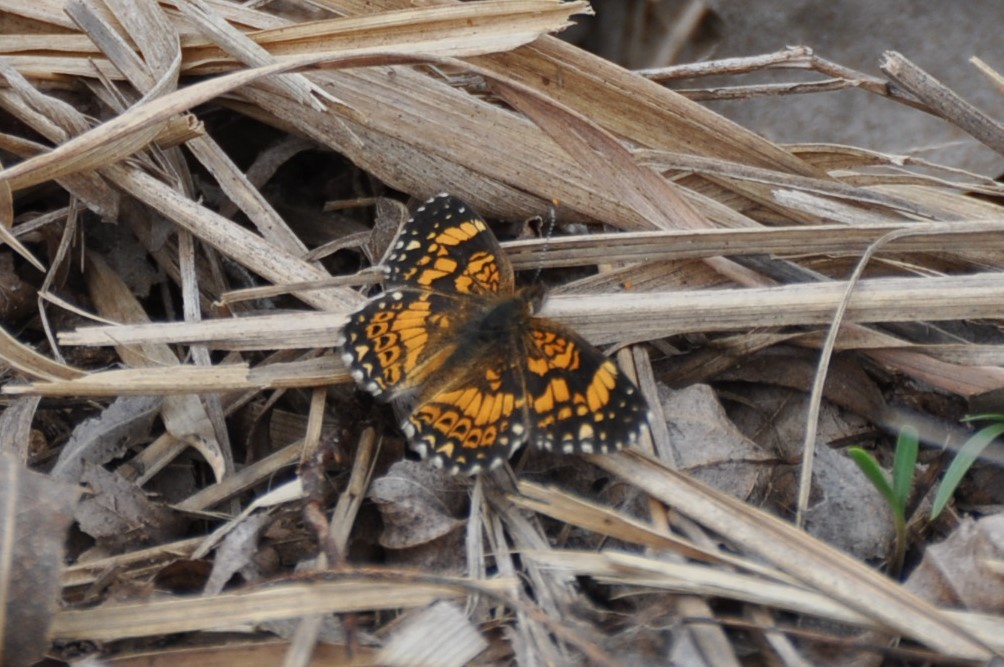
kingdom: Animalia
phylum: Arthropoda
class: Insecta
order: Lepidoptera
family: Nymphalidae
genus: Chlosyne
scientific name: Chlosyne gorgone
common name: Gorgone checkerspot
